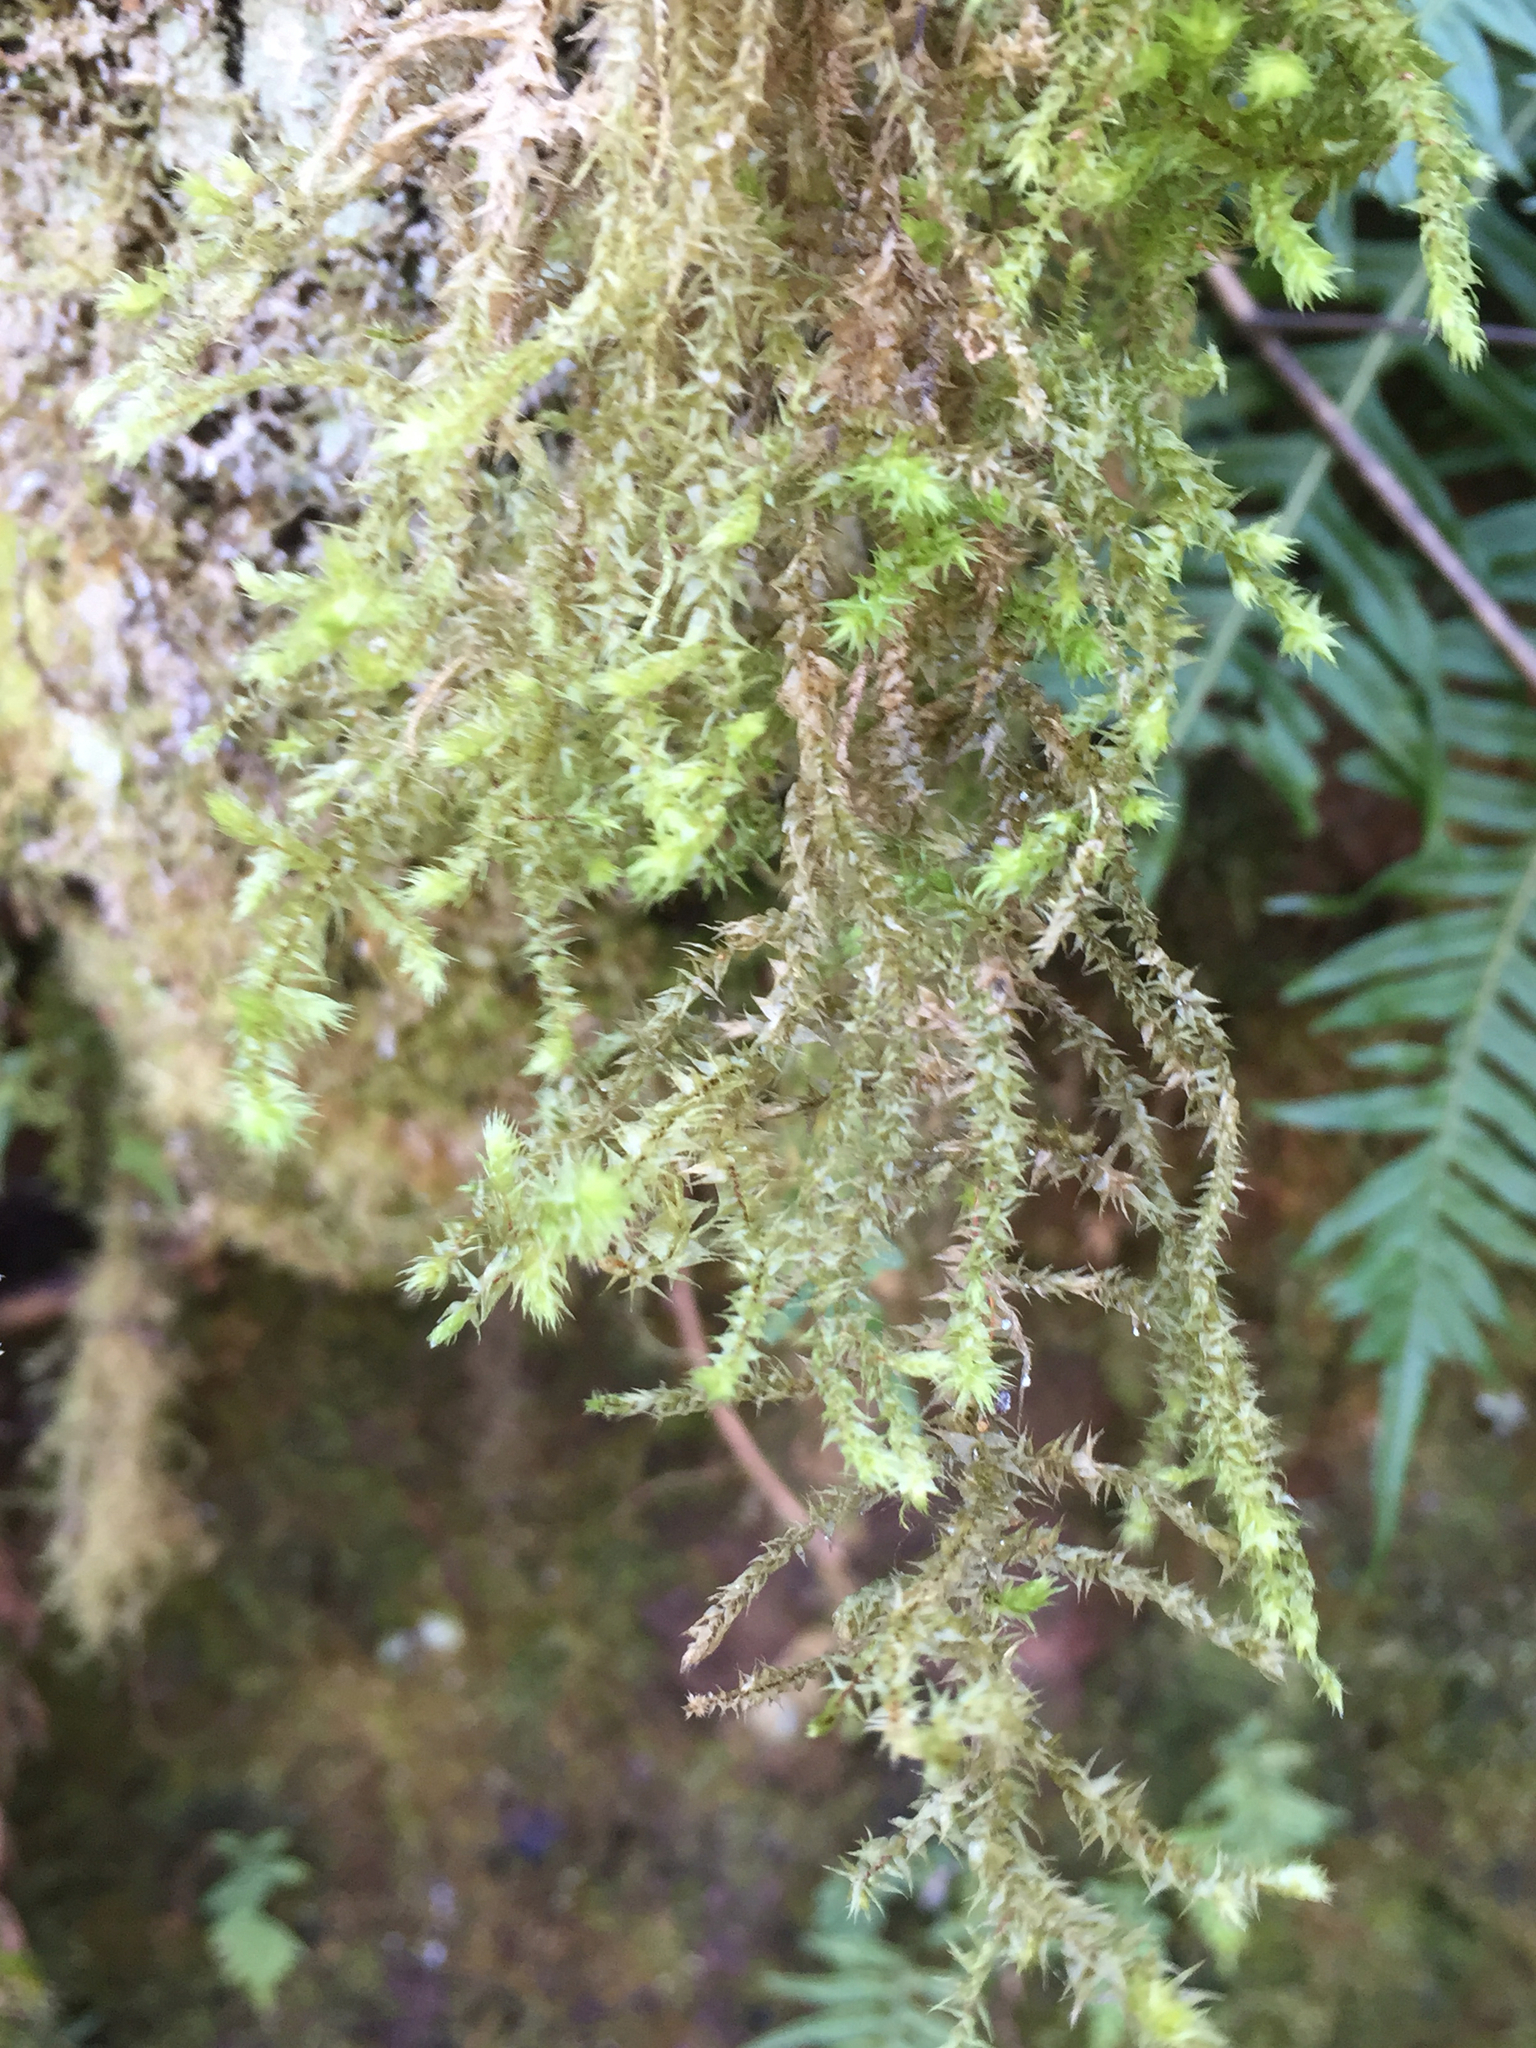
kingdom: Plantae
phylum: Bryophyta
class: Bryopsida
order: Hypnales
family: Hylocomiaceae
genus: Hylocomiadelphus
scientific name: Hylocomiadelphus triquetrus
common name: Rough goose neck moss
